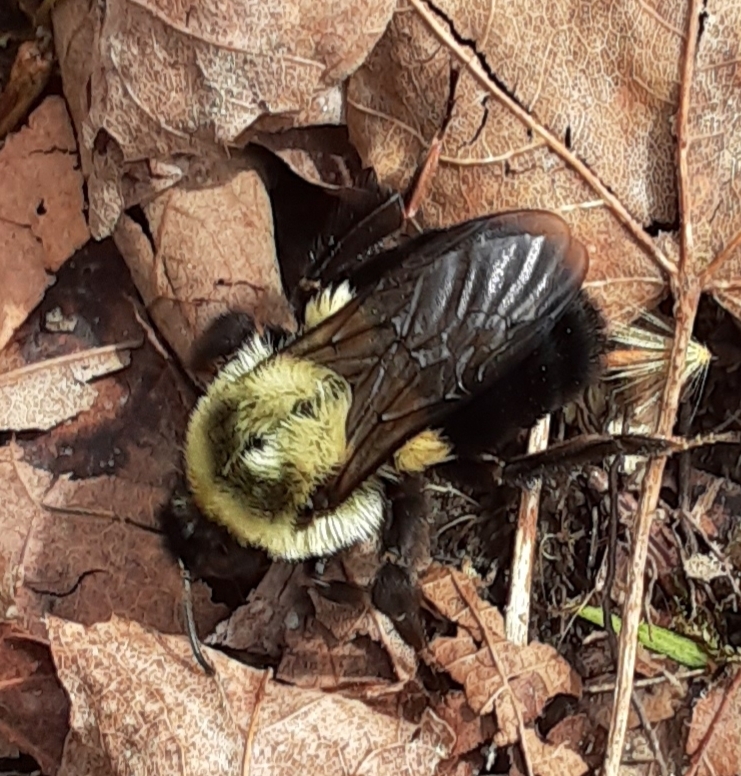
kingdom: Animalia
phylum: Arthropoda
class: Insecta
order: Hymenoptera
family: Apidae
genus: Bombus
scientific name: Bombus impatiens
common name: Common eastern bumble bee
